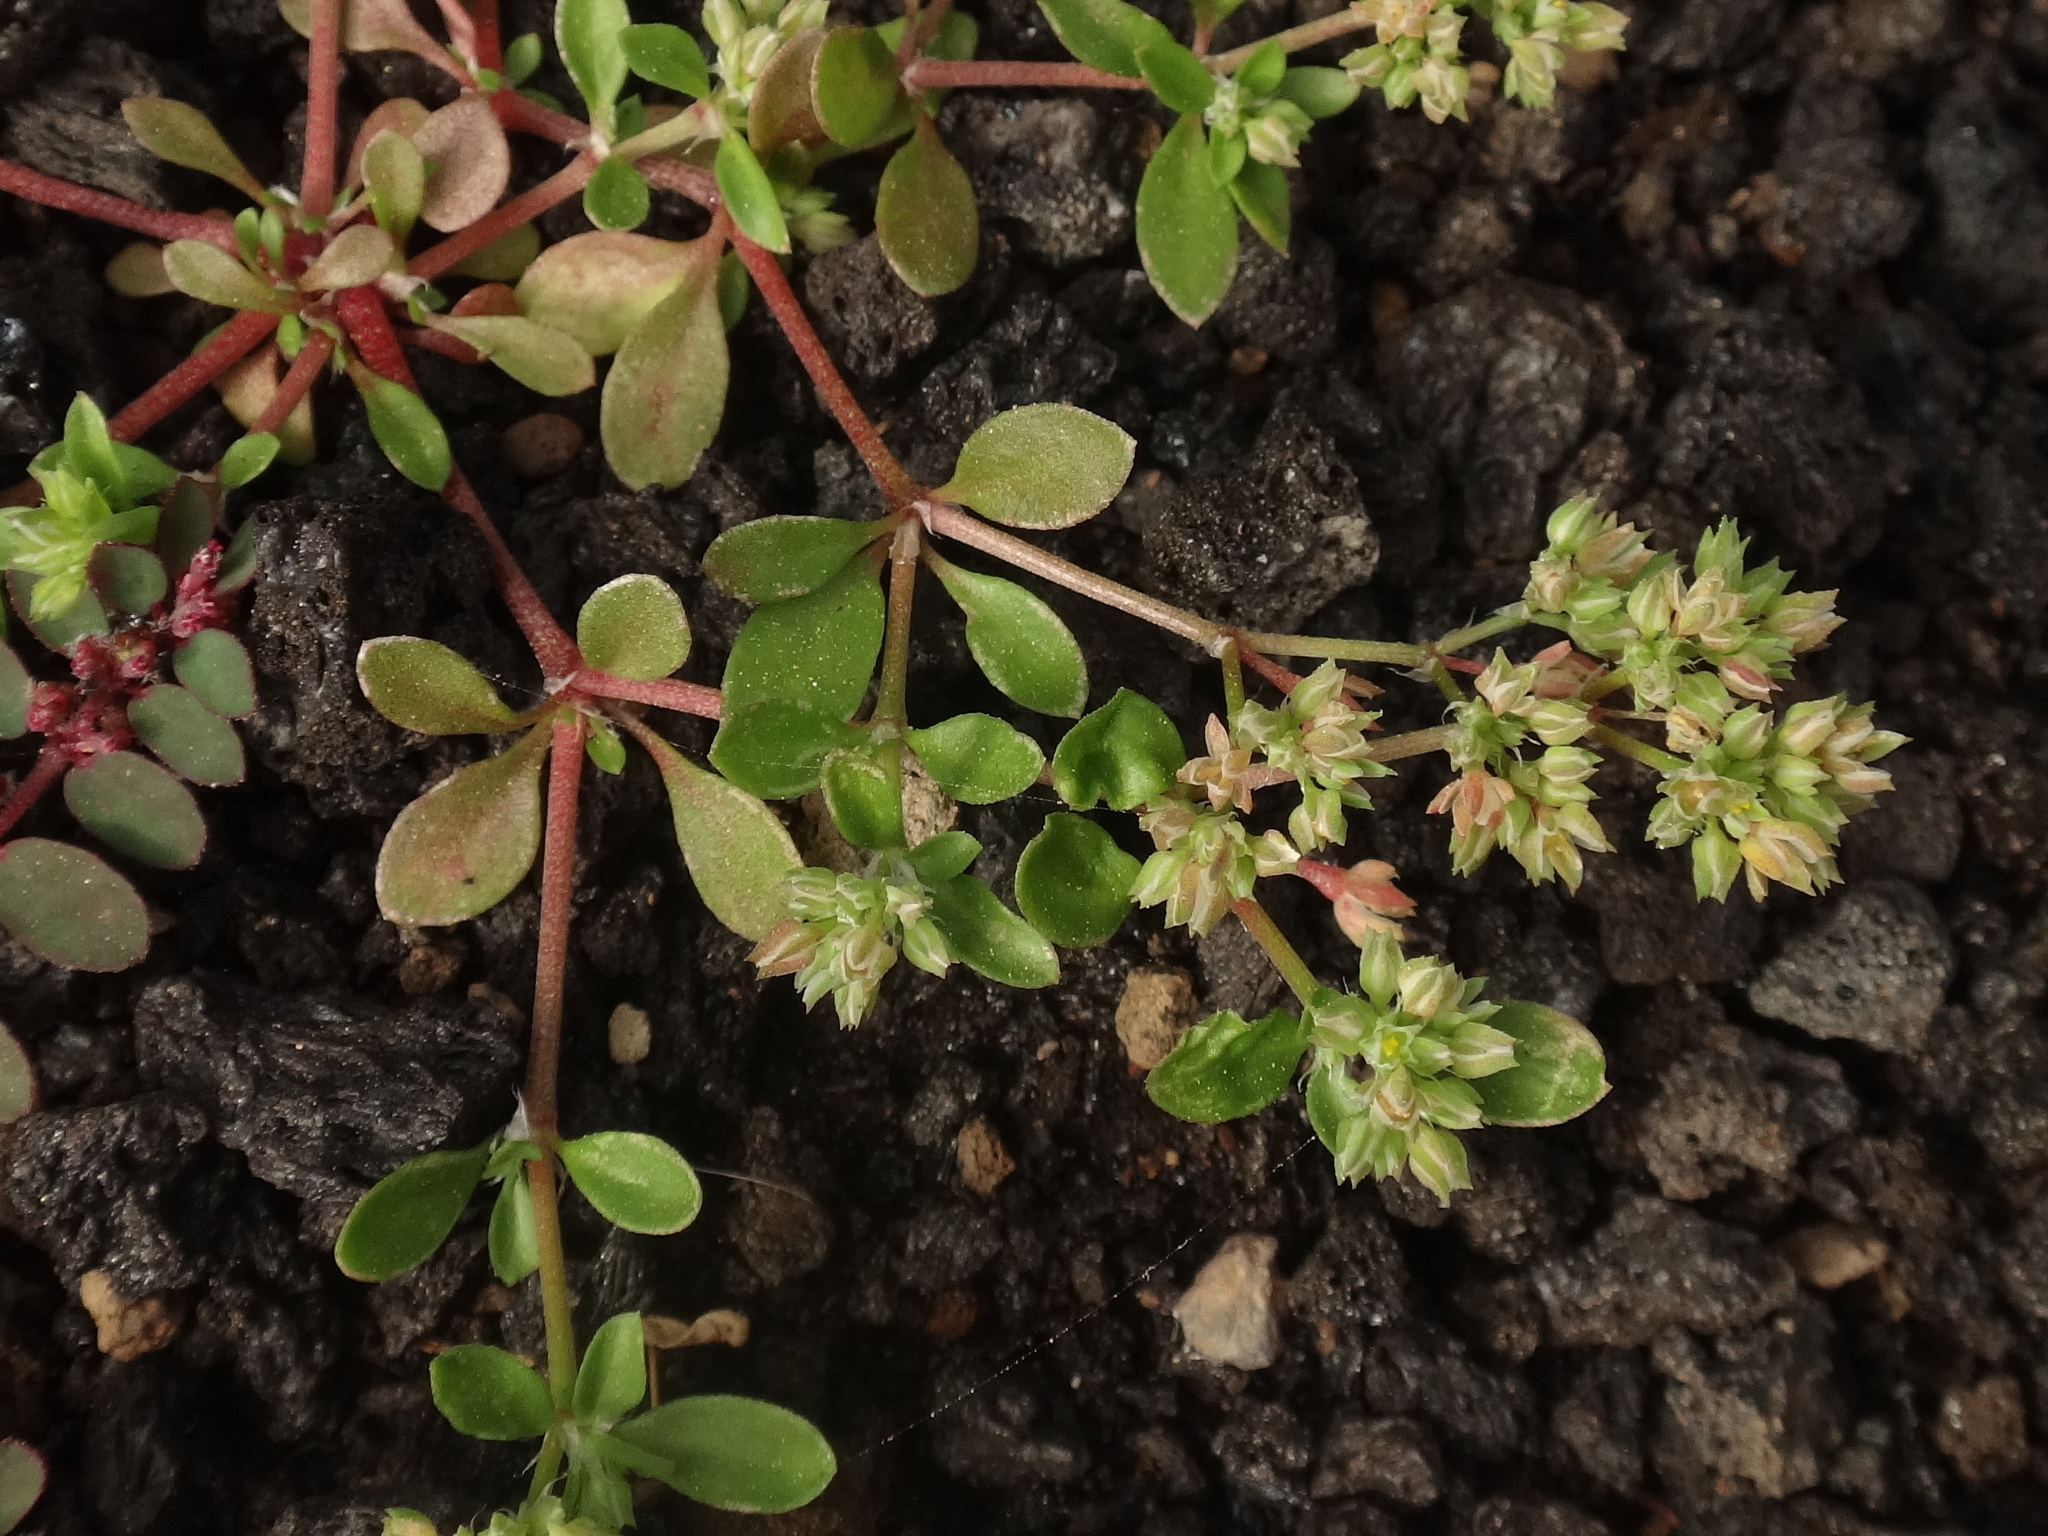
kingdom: Plantae
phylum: Tracheophyta
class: Magnoliopsida
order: Caryophyllales
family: Caryophyllaceae
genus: Polycarpon
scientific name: Polycarpon tetraphyllum
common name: Four-leaved all-seed
